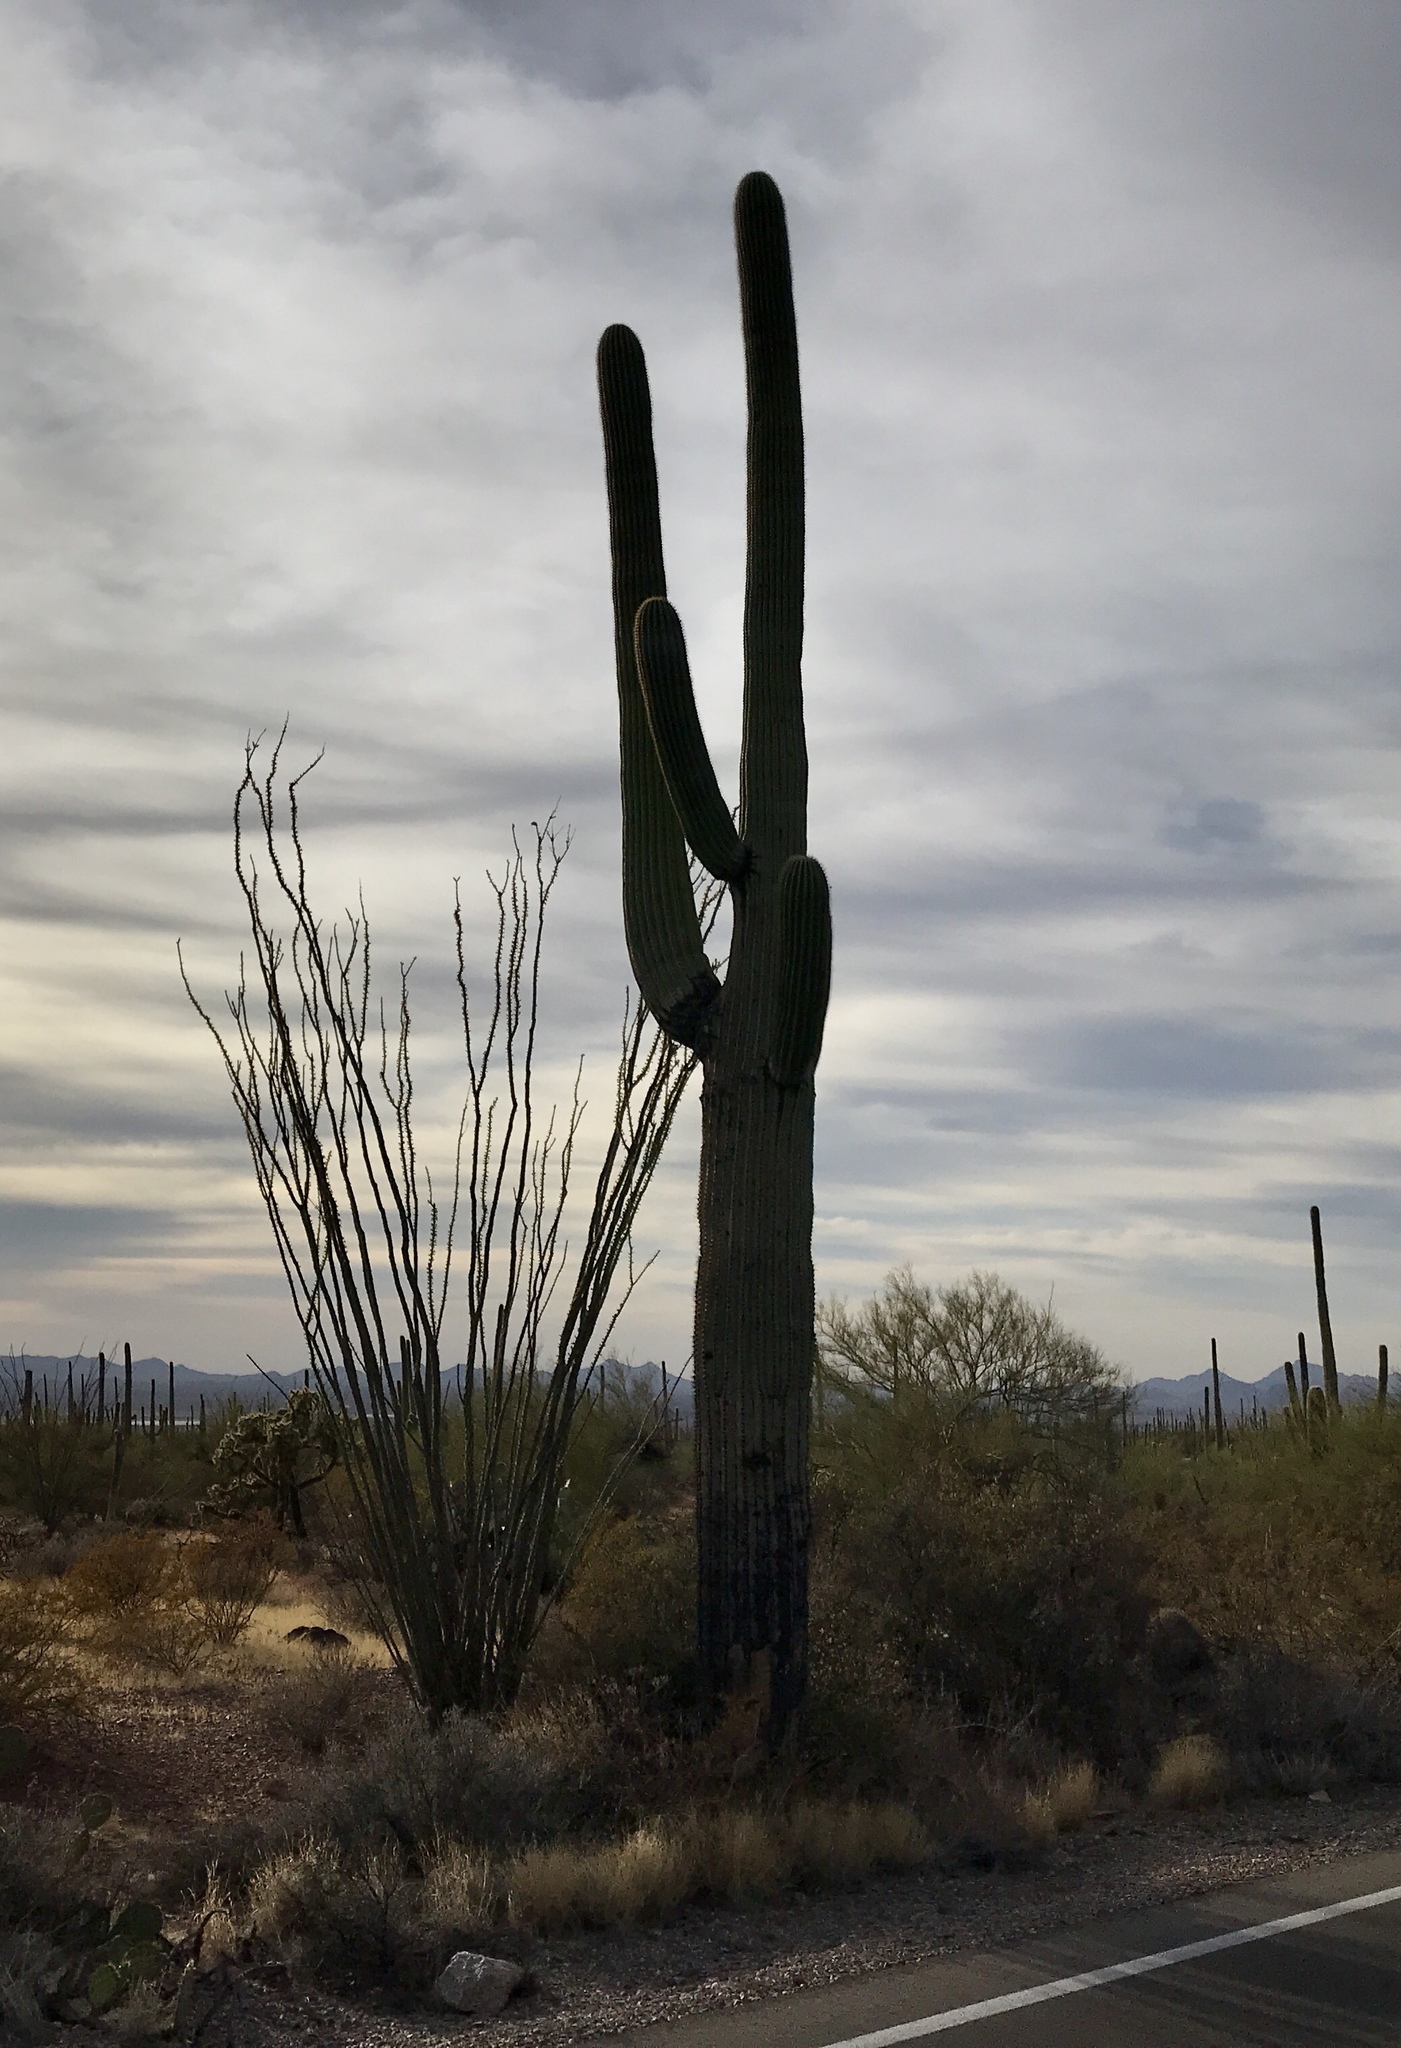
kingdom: Plantae
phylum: Tracheophyta
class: Magnoliopsida
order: Caryophyllales
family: Cactaceae
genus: Carnegiea
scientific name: Carnegiea gigantea
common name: Saguaro
